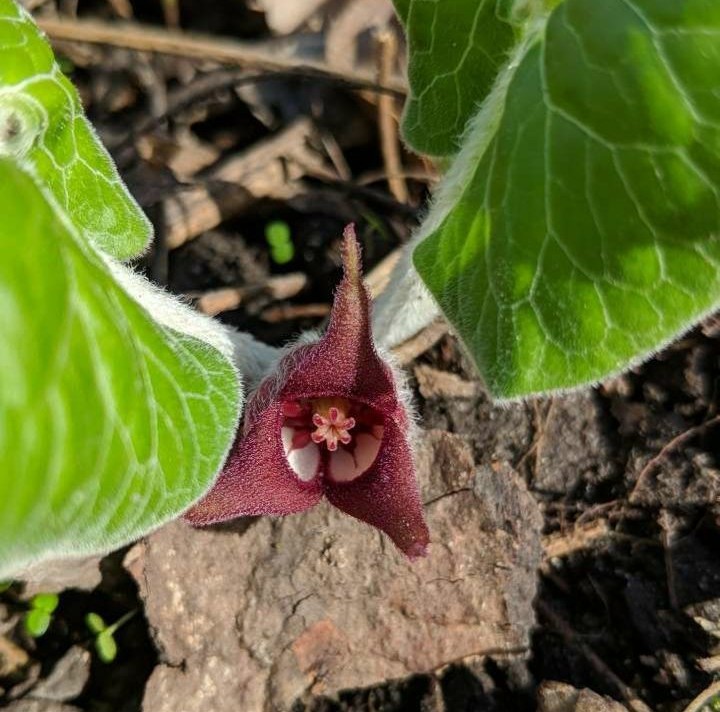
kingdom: Plantae
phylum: Tracheophyta
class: Magnoliopsida
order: Piperales
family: Aristolochiaceae
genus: Asarum
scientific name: Asarum canadense
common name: Wild ginger
